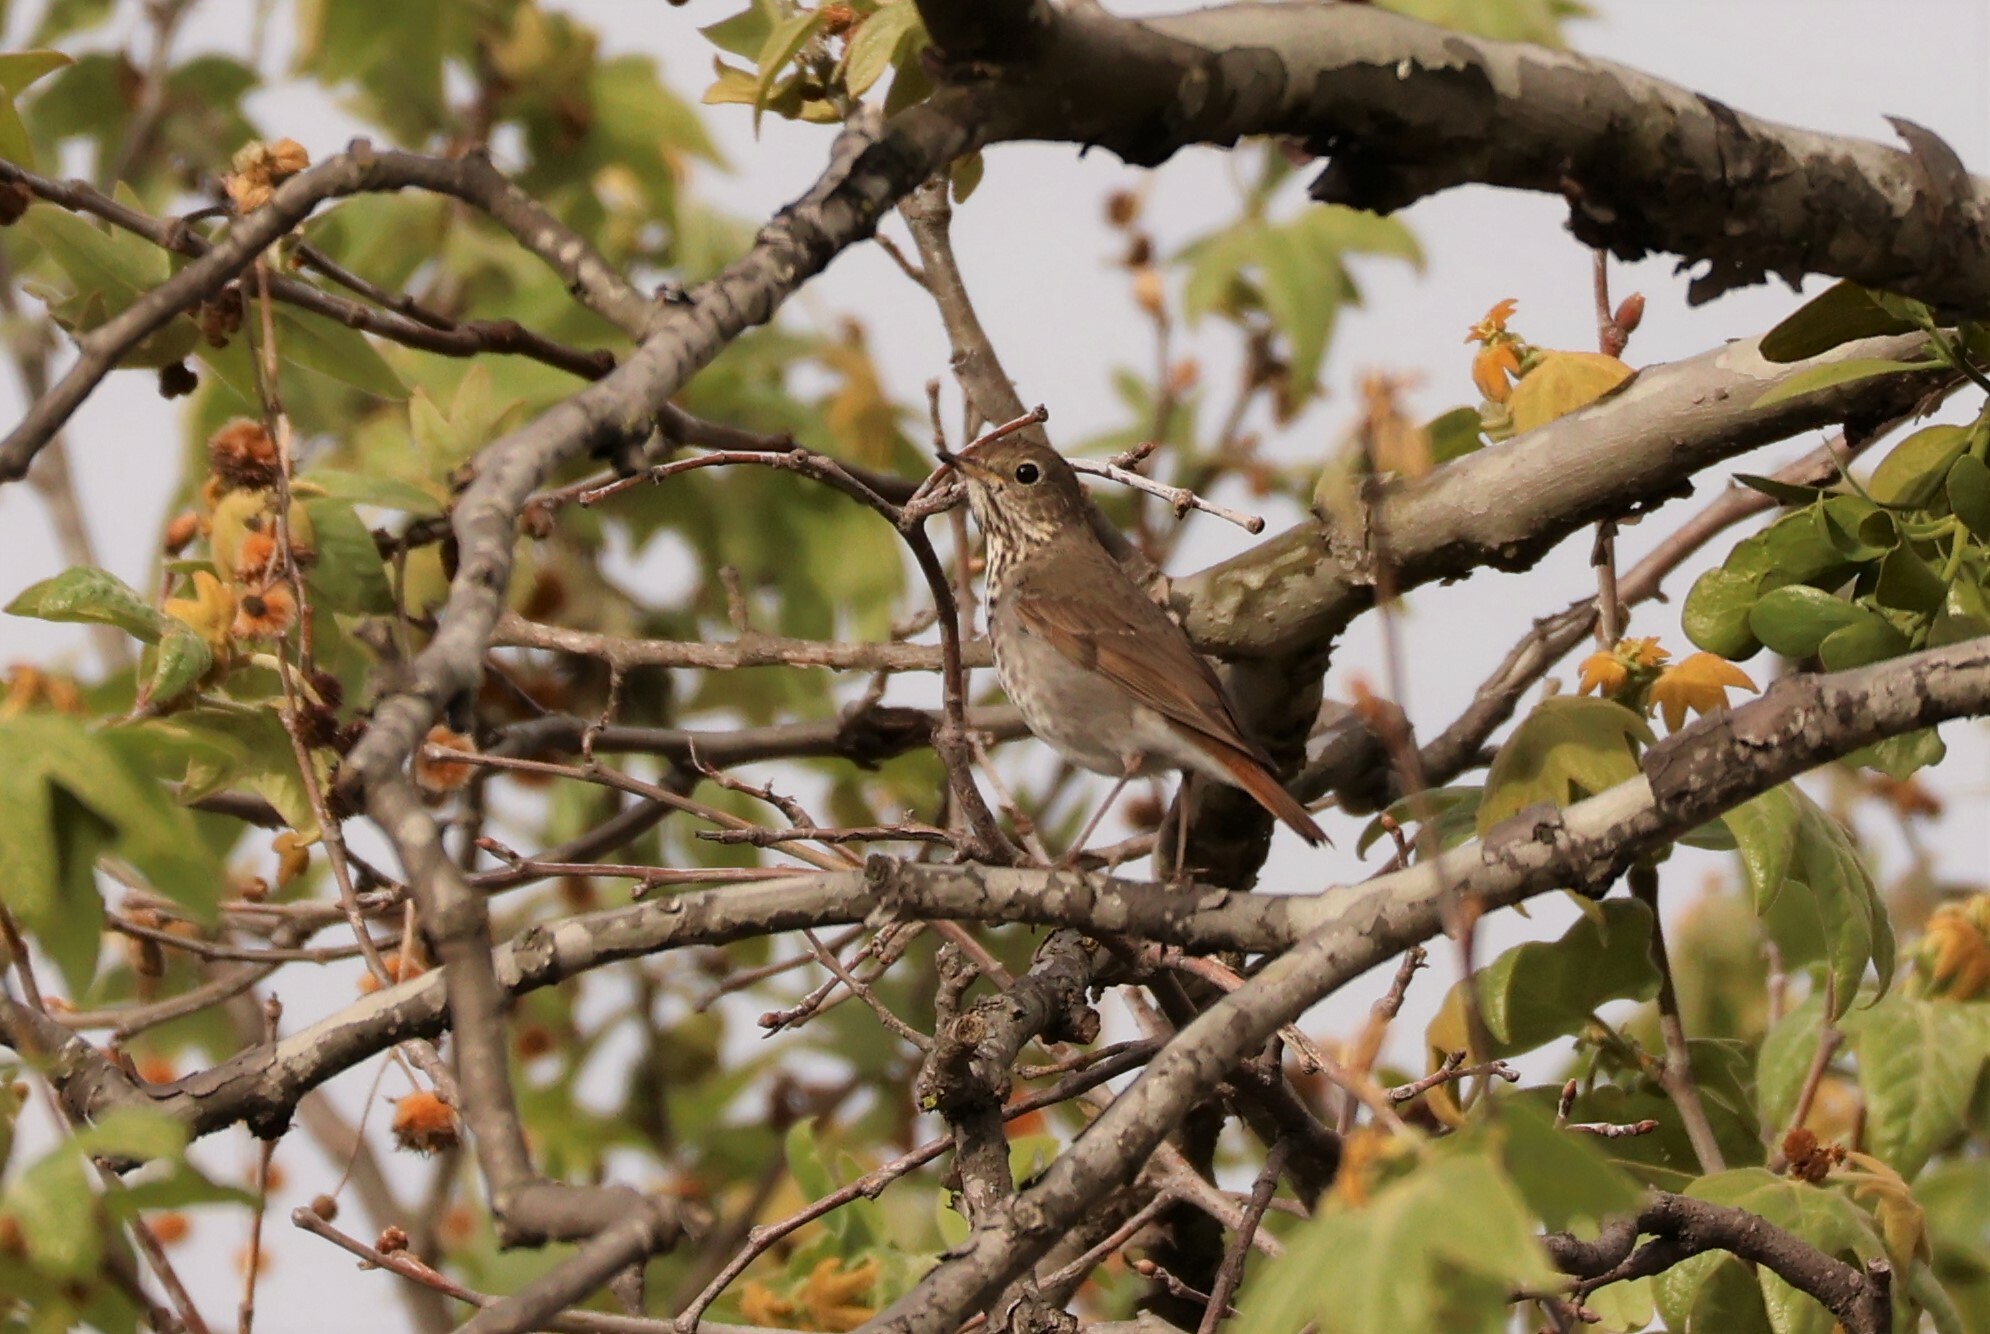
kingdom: Animalia
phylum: Chordata
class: Aves
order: Passeriformes
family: Turdidae
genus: Catharus
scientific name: Catharus guttatus
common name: Hermit thrush
